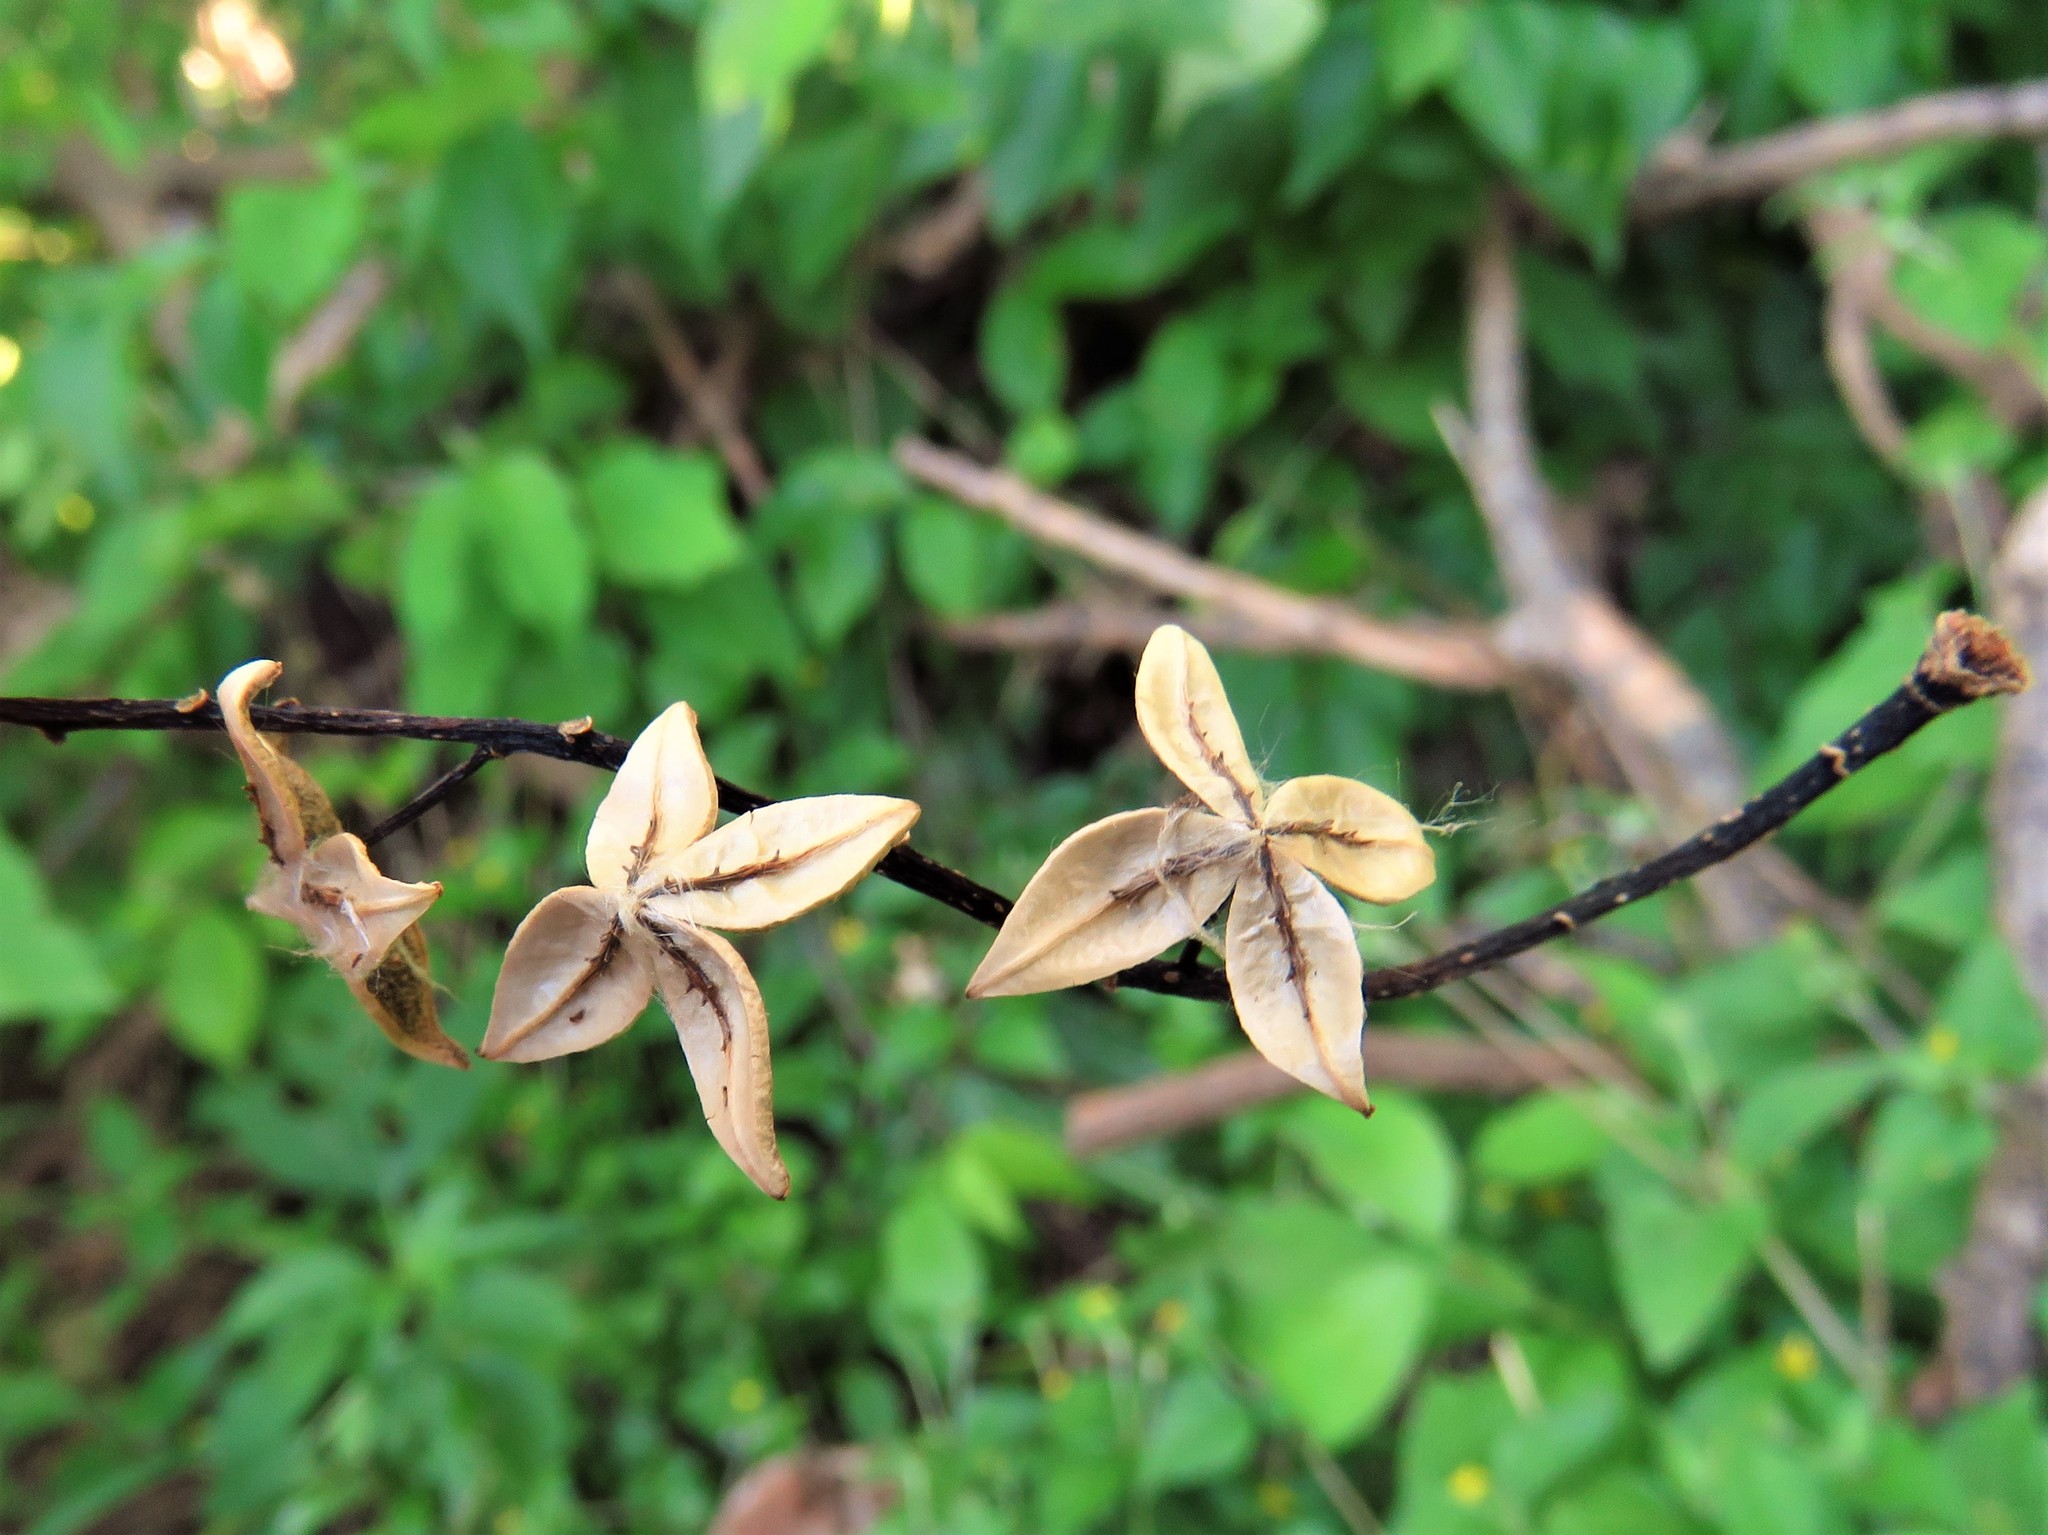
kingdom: Plantae
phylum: Tracheophyta
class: Magnoliopsida
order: Malpighiales
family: Salicaceae
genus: Populus
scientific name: Populus deltoides
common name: Eastern cottonwood
